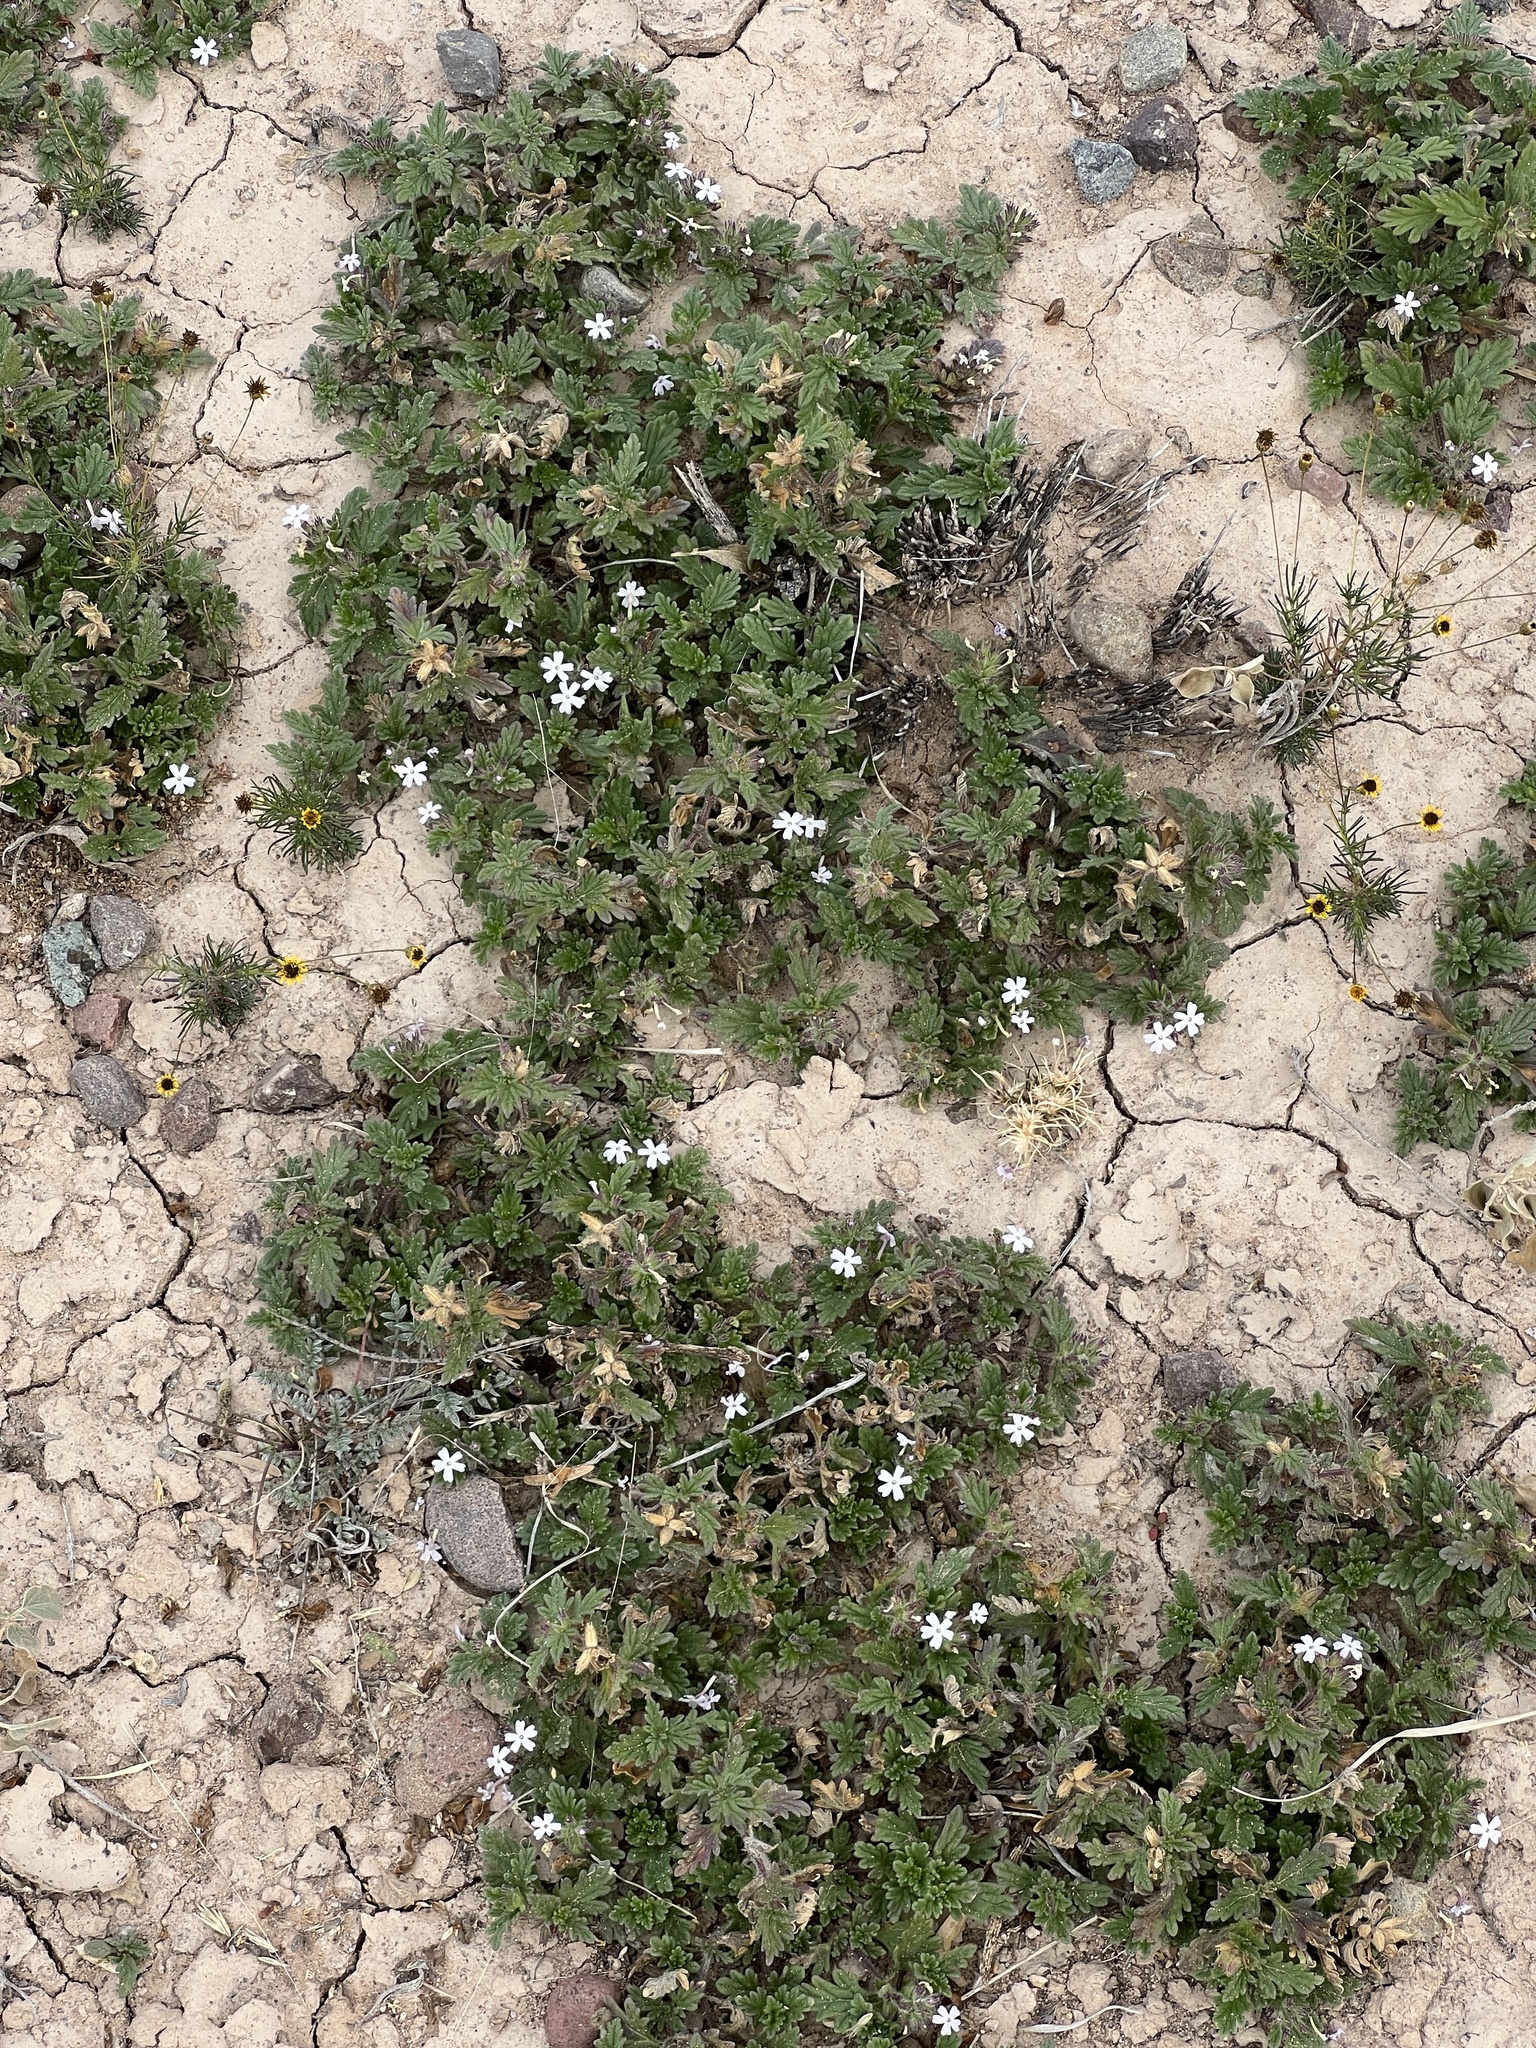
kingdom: Plantae
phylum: Tracheophyta
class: Magnoliopsida
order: Lamiales
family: Verbenaceae
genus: Verbena
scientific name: Verbena quadrangulata
